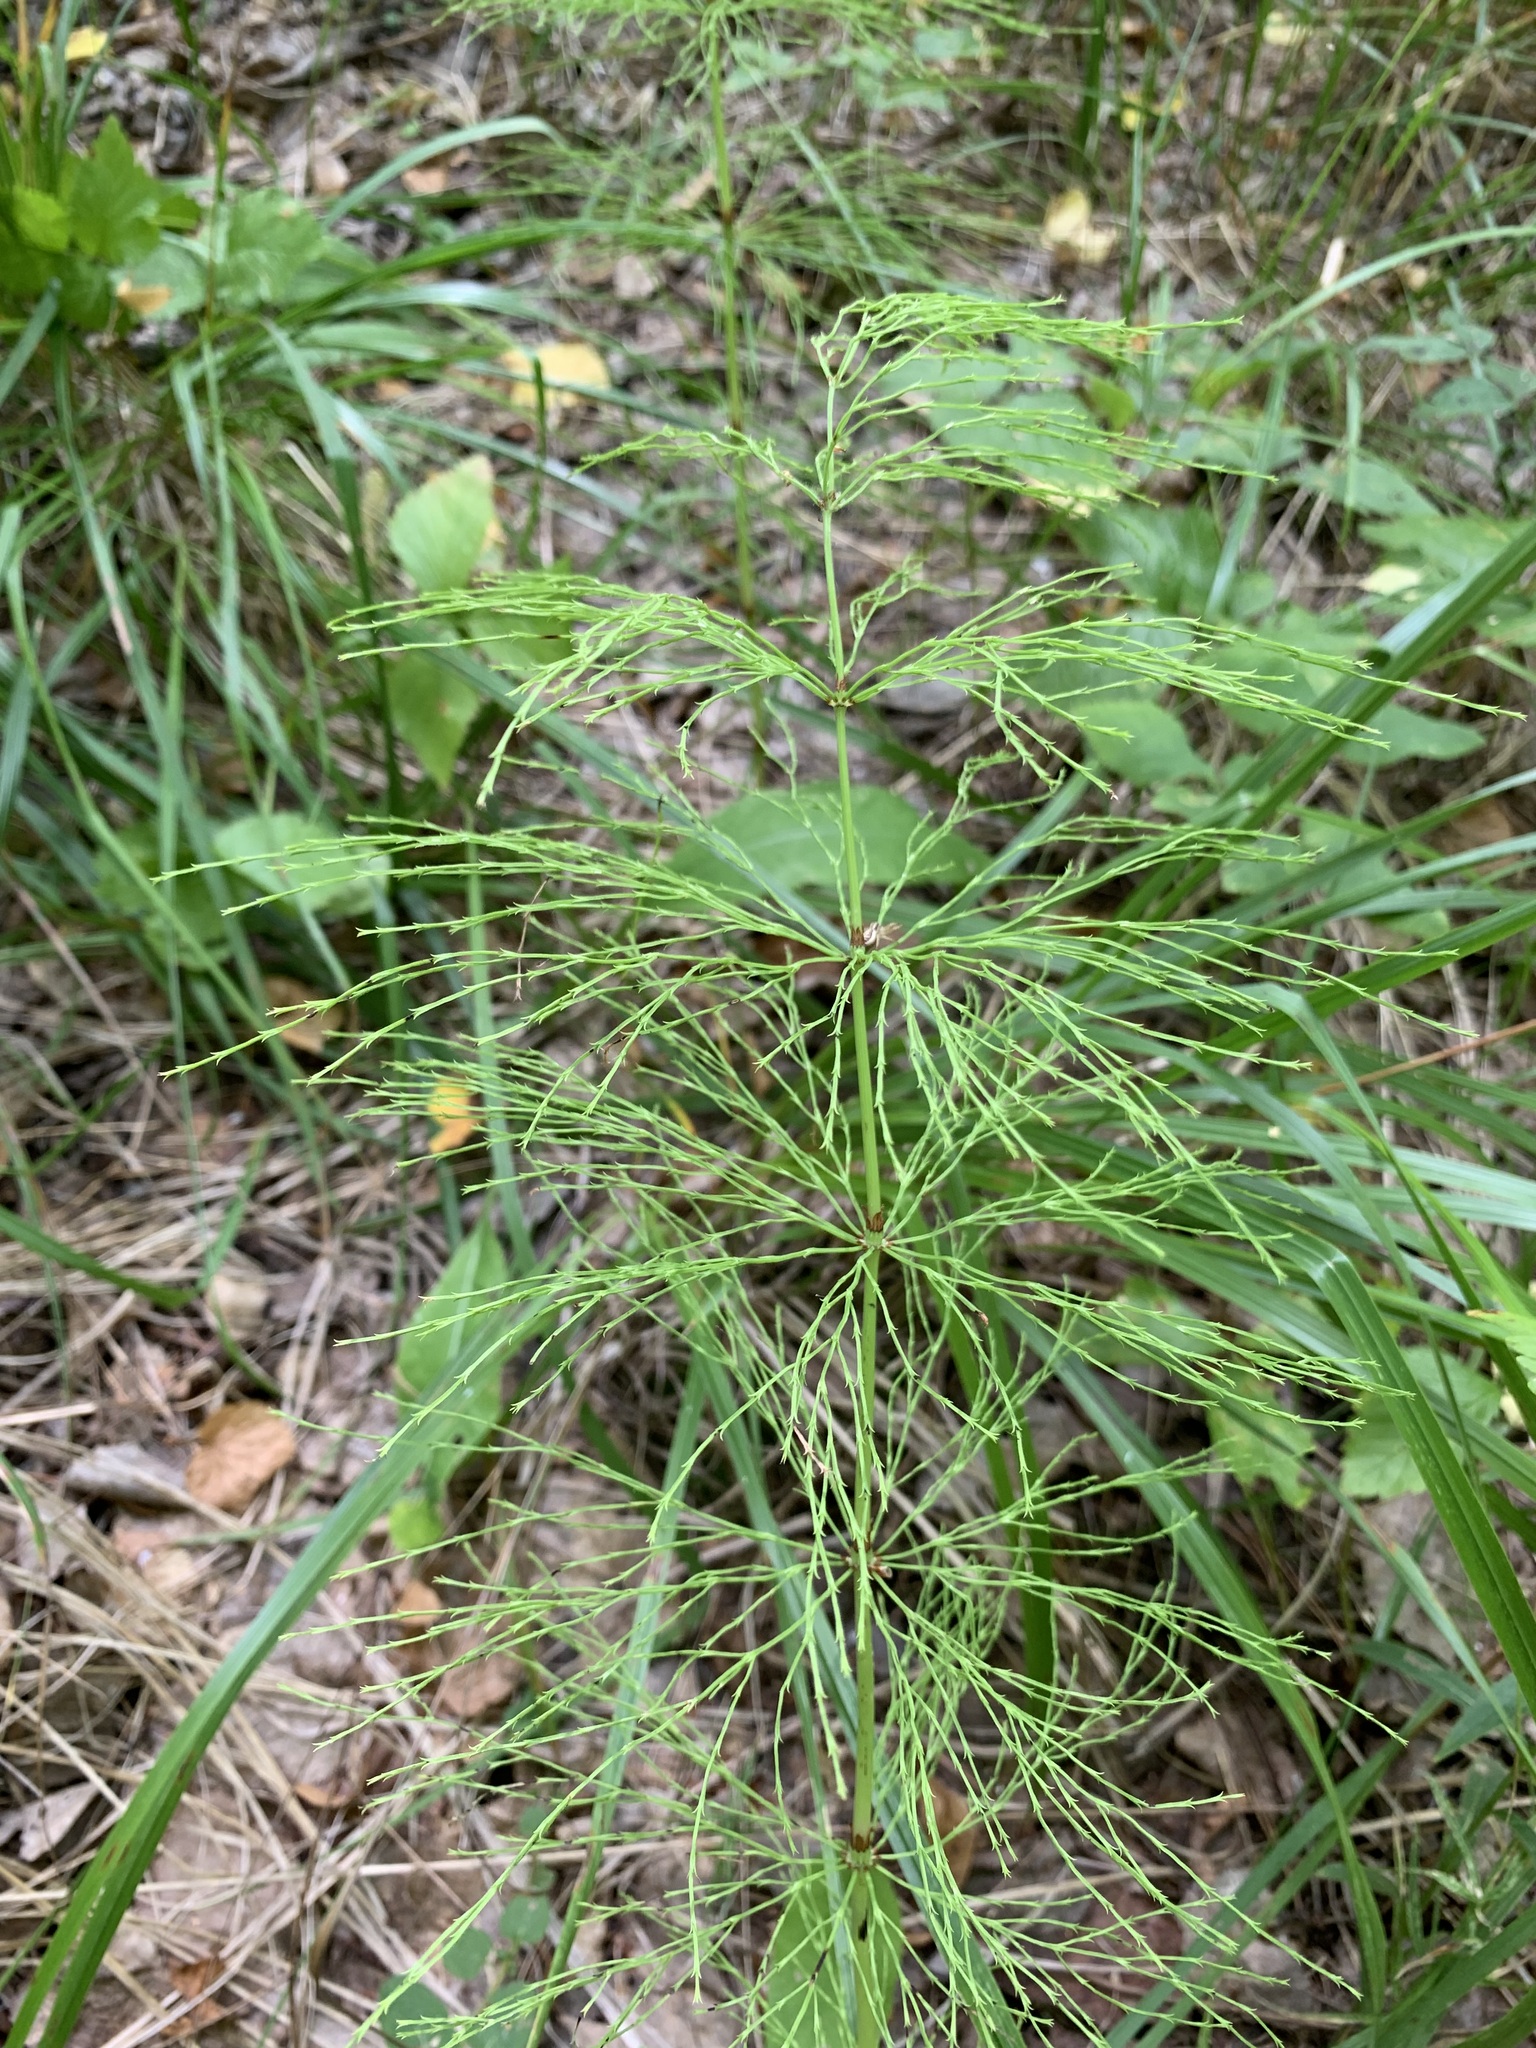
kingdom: Plantae
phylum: Tracheophyta
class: Polypodiopsida
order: Equisetales
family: Equisetaceae
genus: Equisetum
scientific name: Equisetum sylvaticum
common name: Wood horsetail
